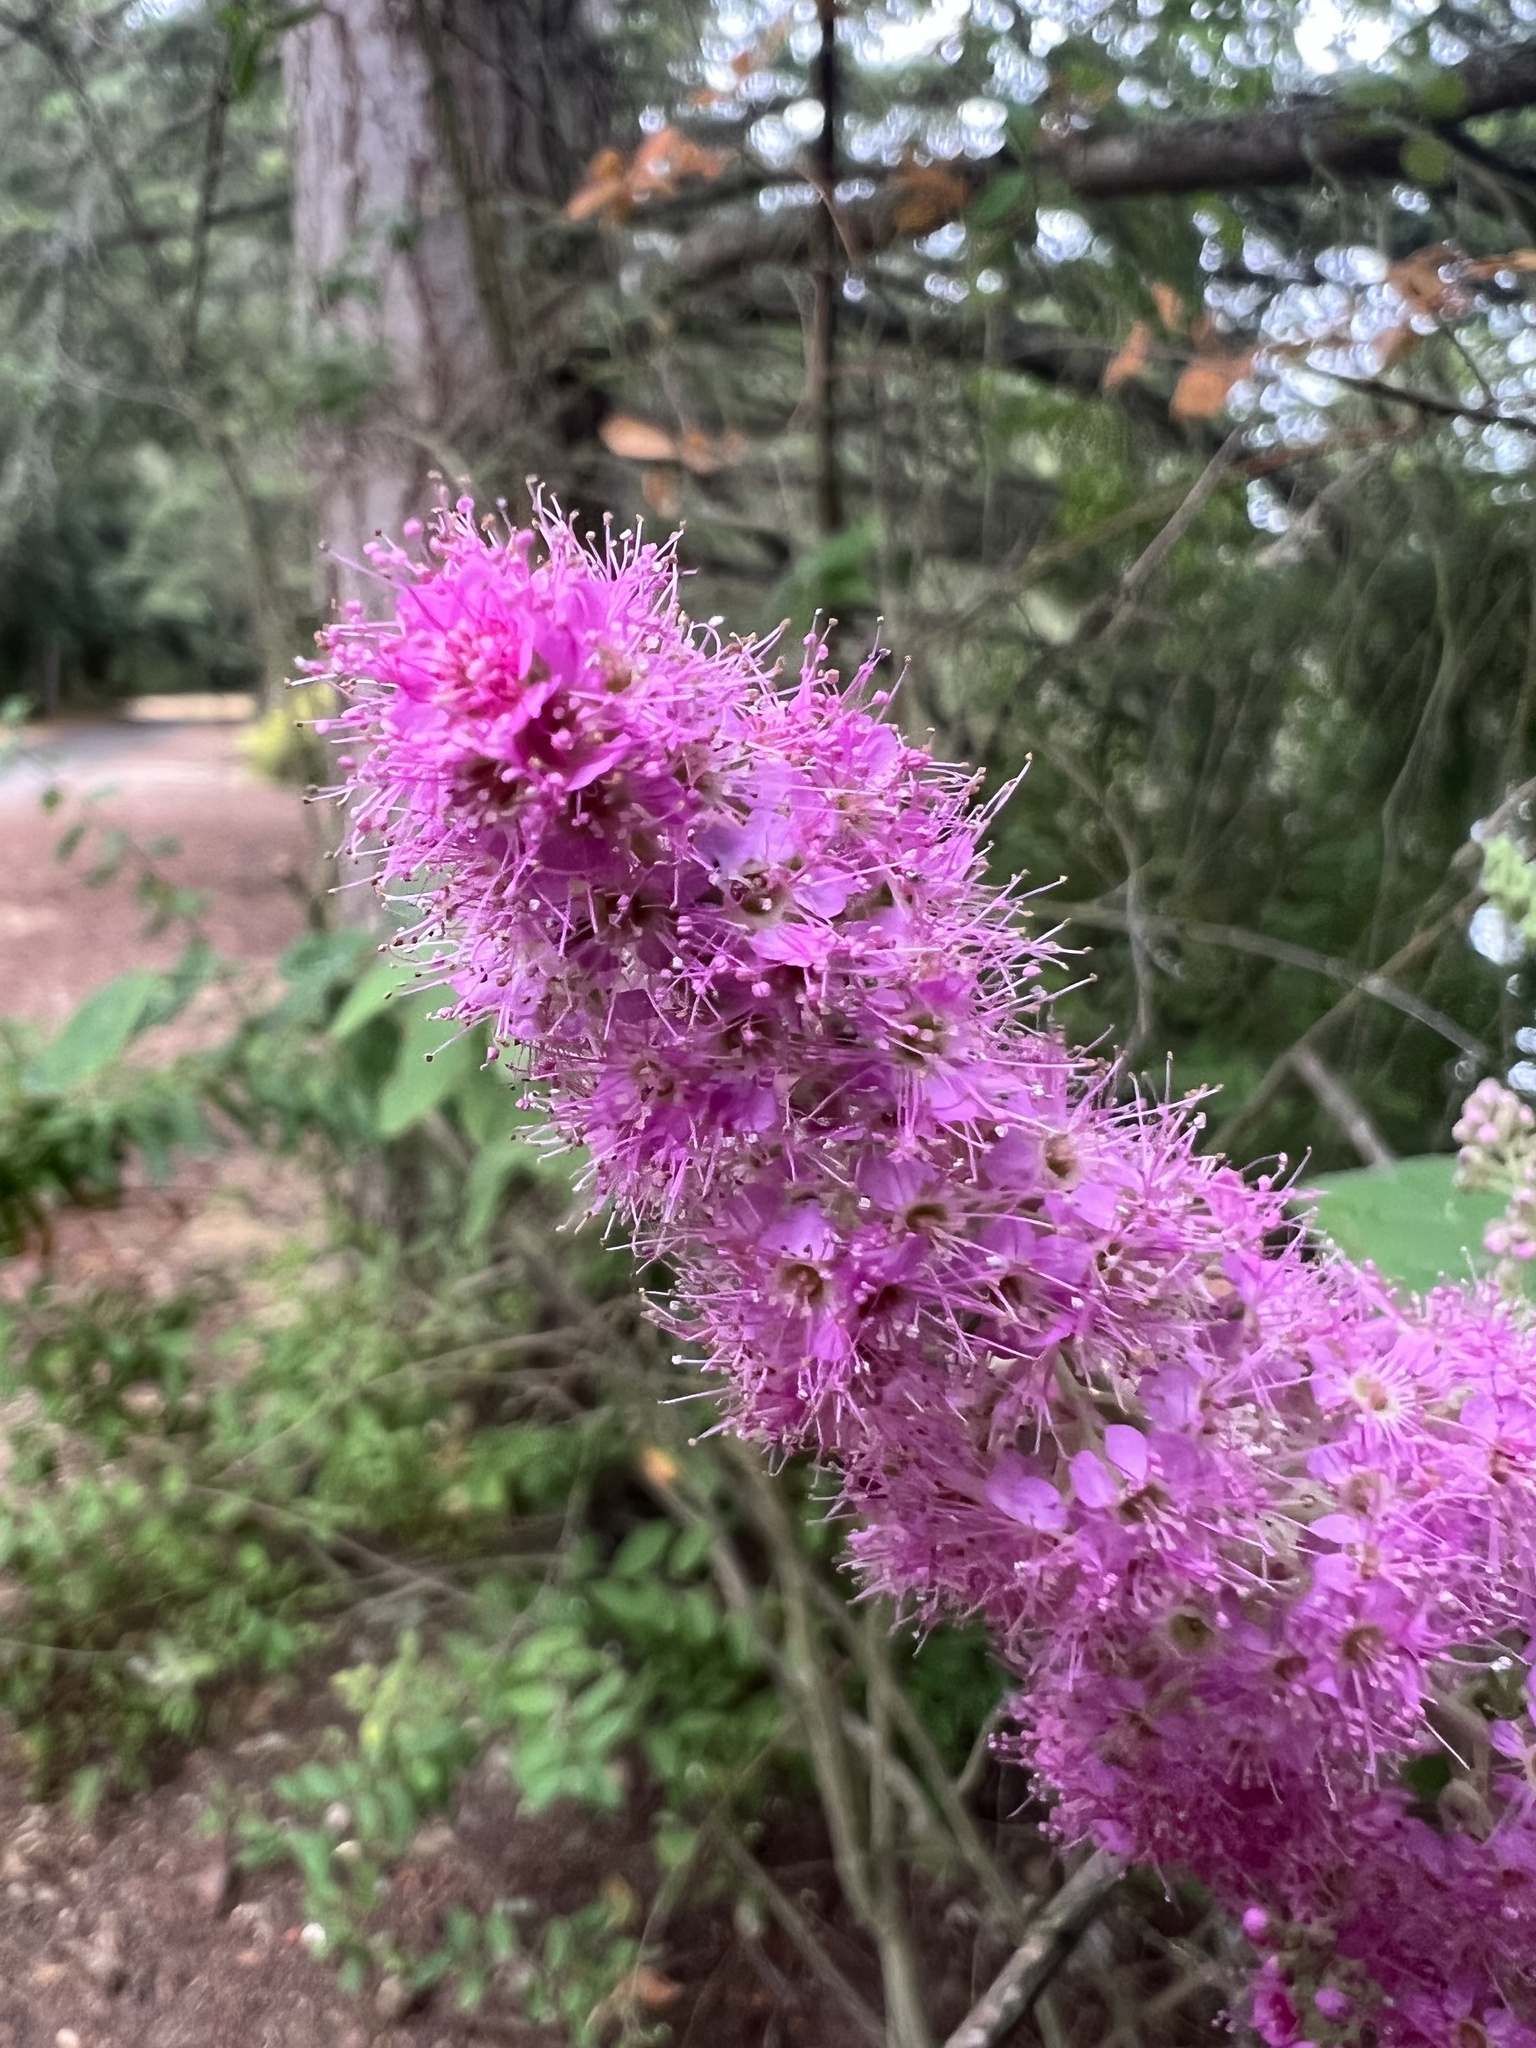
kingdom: Plantae
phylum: Tracheophyta
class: Magnoliopsida
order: Rosales
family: Rosaceae
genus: Spiraea
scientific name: Spiraea douglasii
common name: Steeplebush
